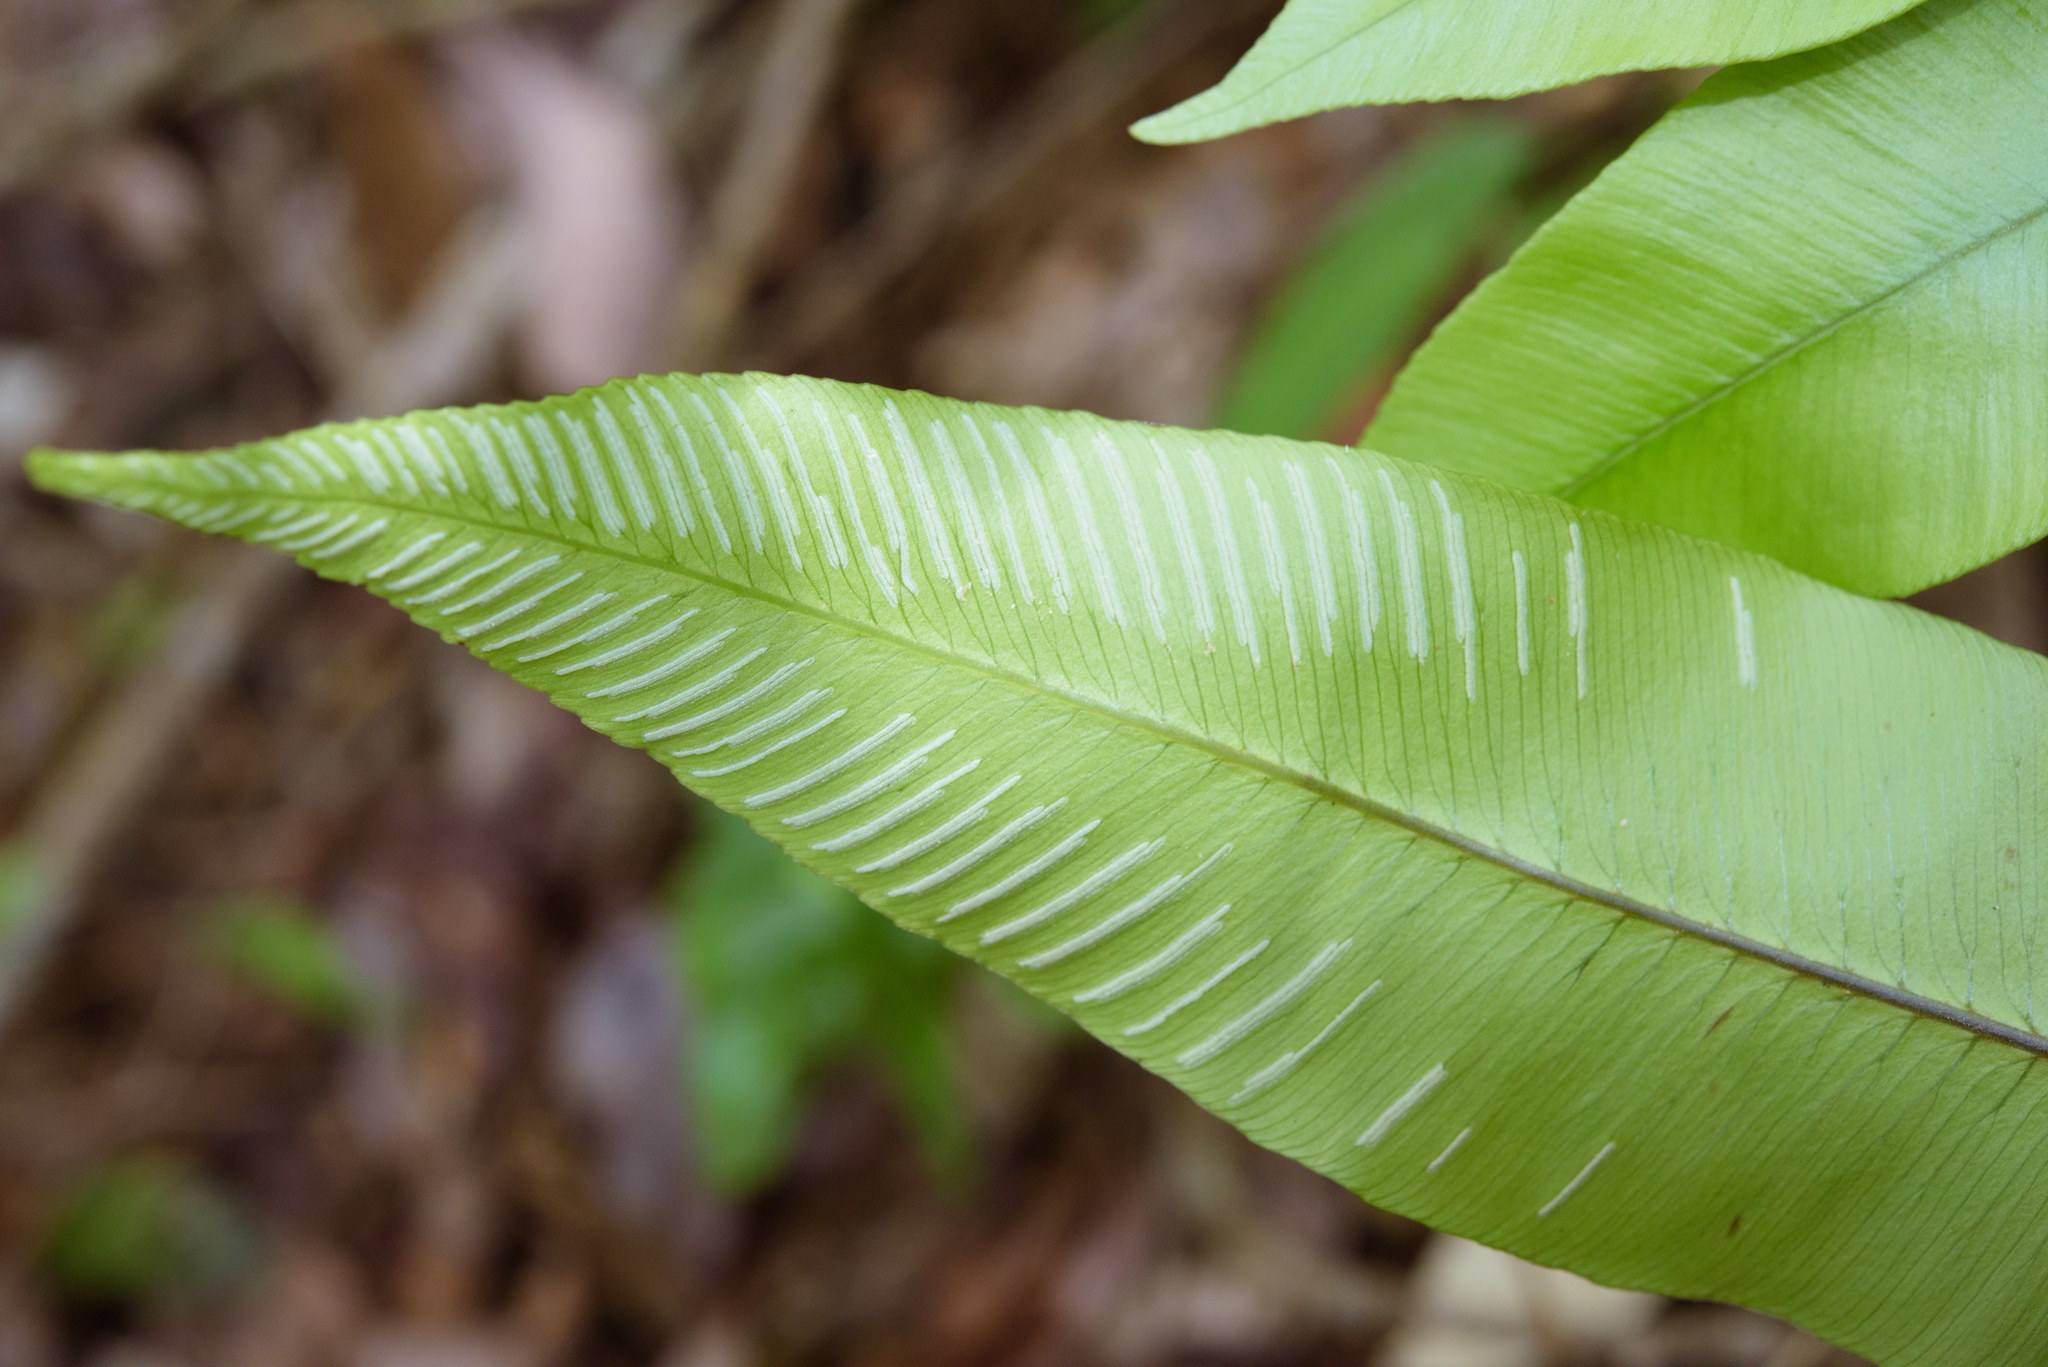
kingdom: Plantae
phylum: Tracheophyta
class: Polypodiopsida
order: Polypodiales
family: Athyriaceae
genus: Diplazium
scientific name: Diplazium lineolatum
